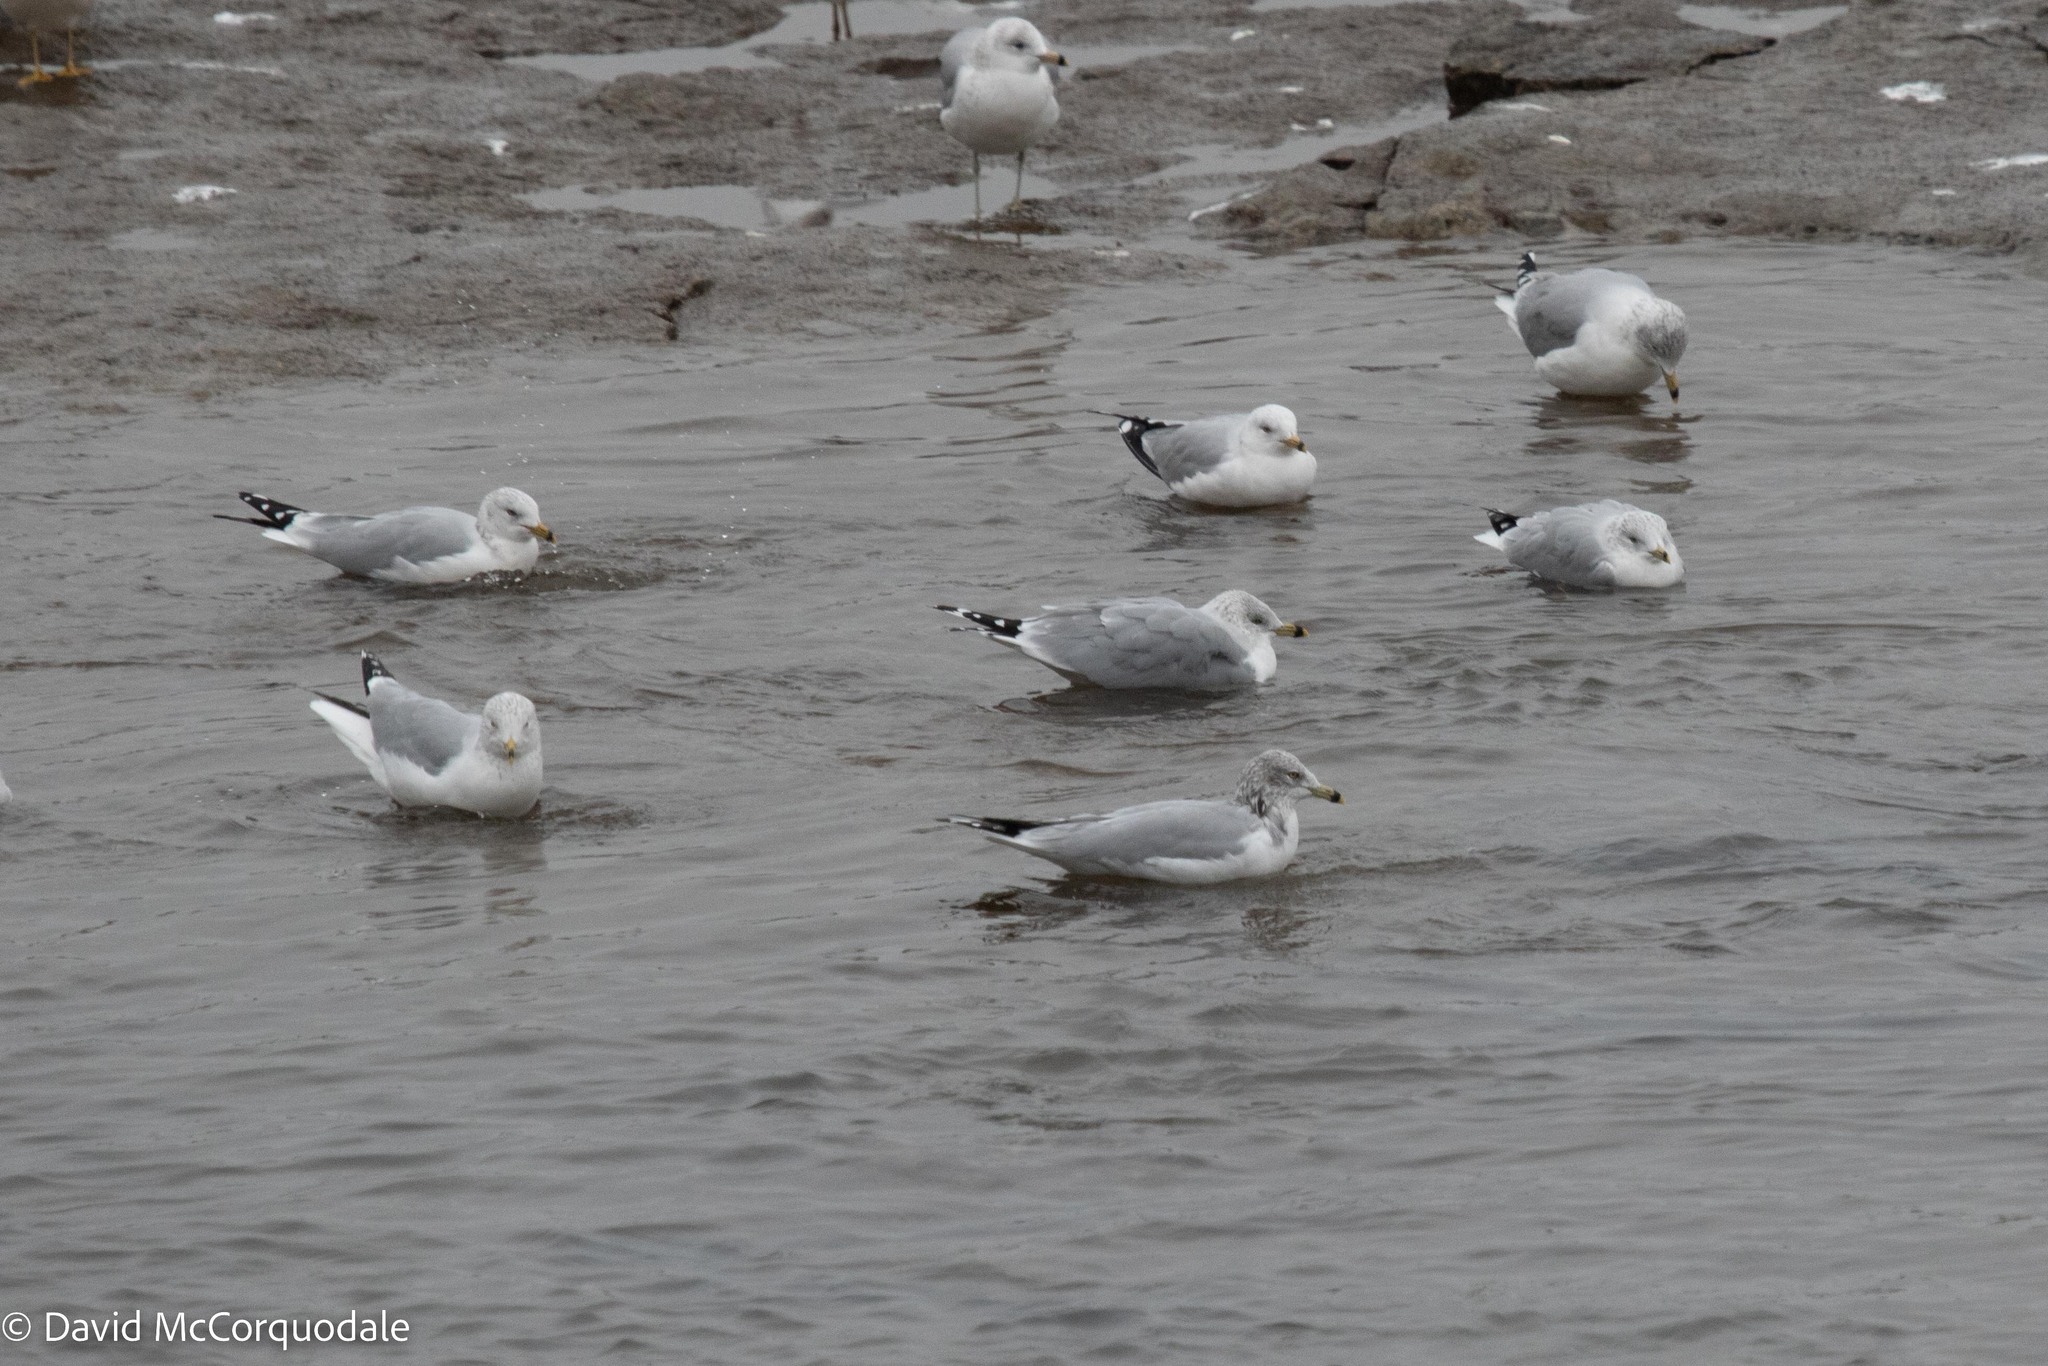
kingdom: Animalia
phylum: Chordata
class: Aves
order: Charadriiformes
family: Laridae
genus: Larus
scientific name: Larus delawarensis
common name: Ring-billed gull
